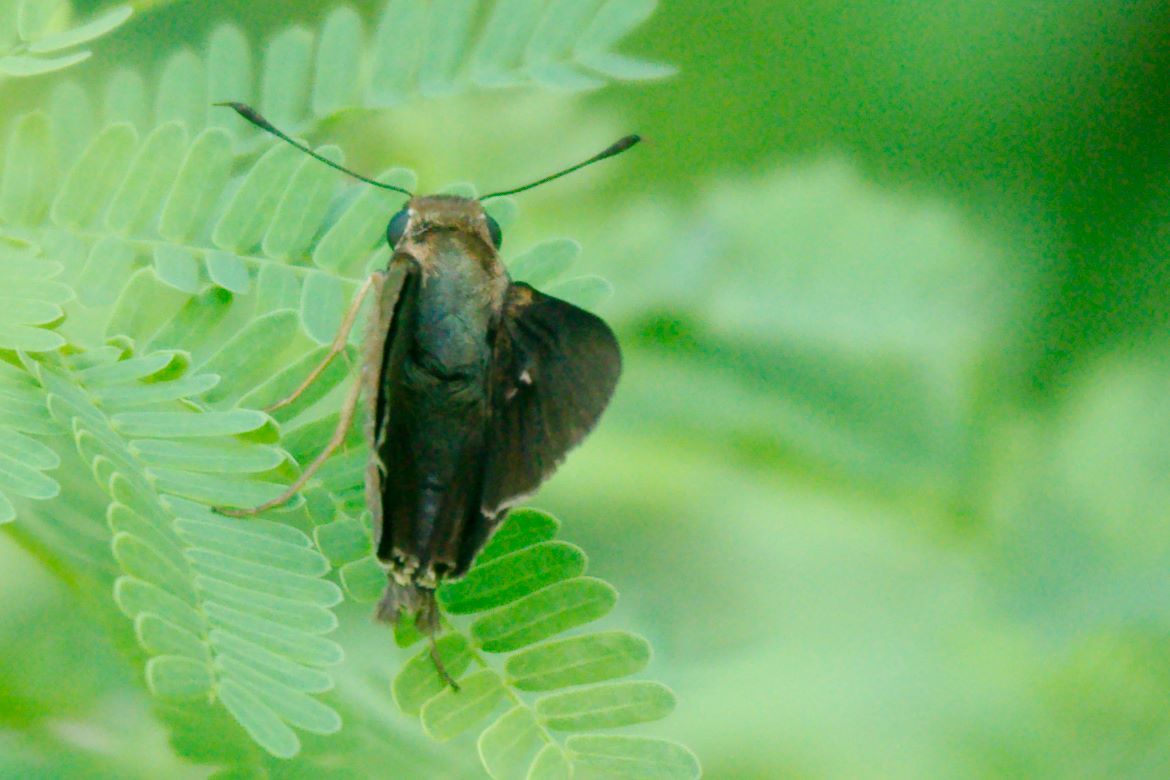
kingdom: Animalia
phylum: Arthropoda
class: Insecta
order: Lepidoptera
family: Hesperiidae
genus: Asbolis
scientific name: Asbolis capucinus
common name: Monk skipper
